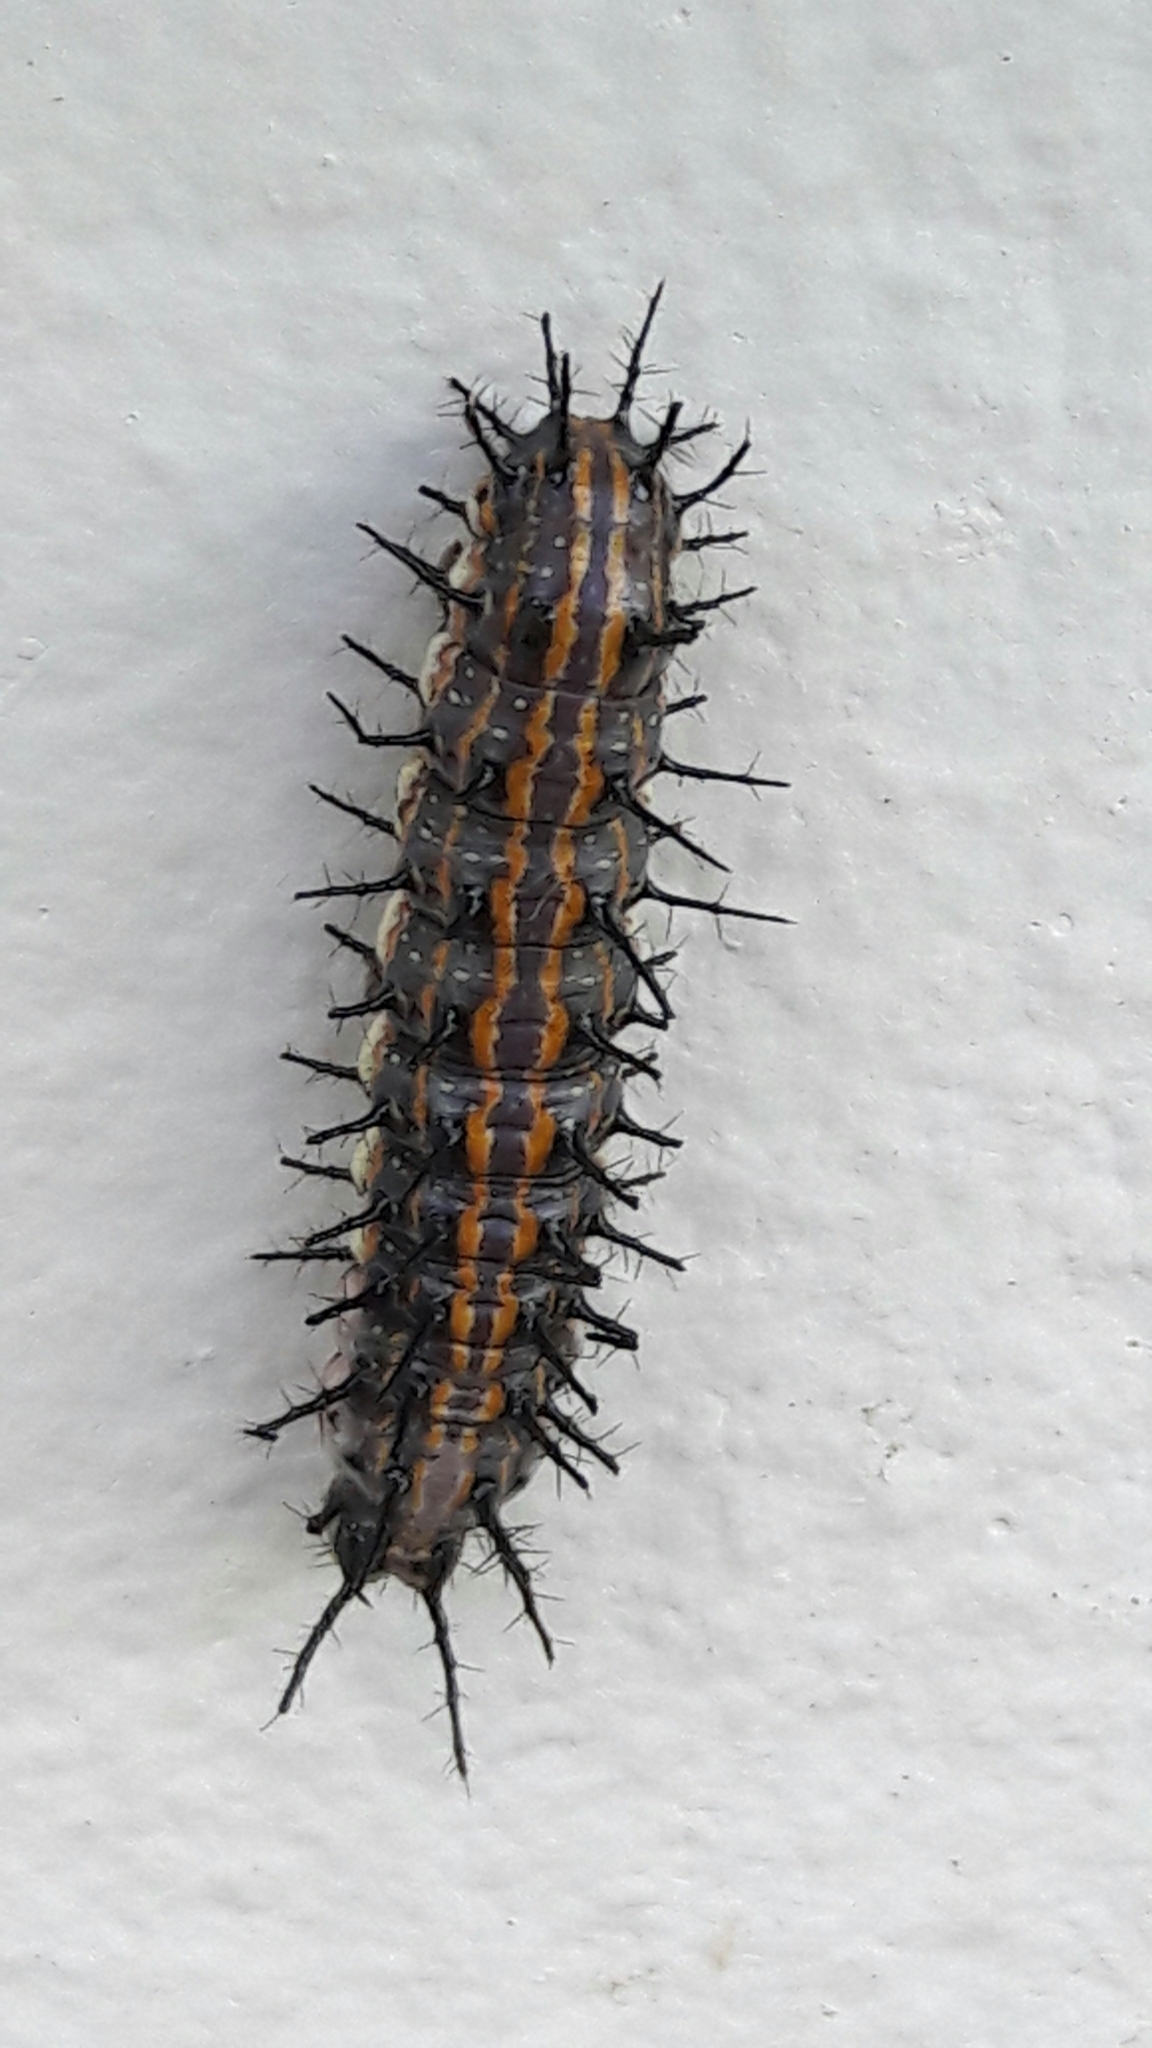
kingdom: Animalia
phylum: Arthropoda
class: Insecta
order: Lepidoptera
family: Nymphalidae
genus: Dione
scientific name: Dione vanillae
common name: Gulf fritillary
